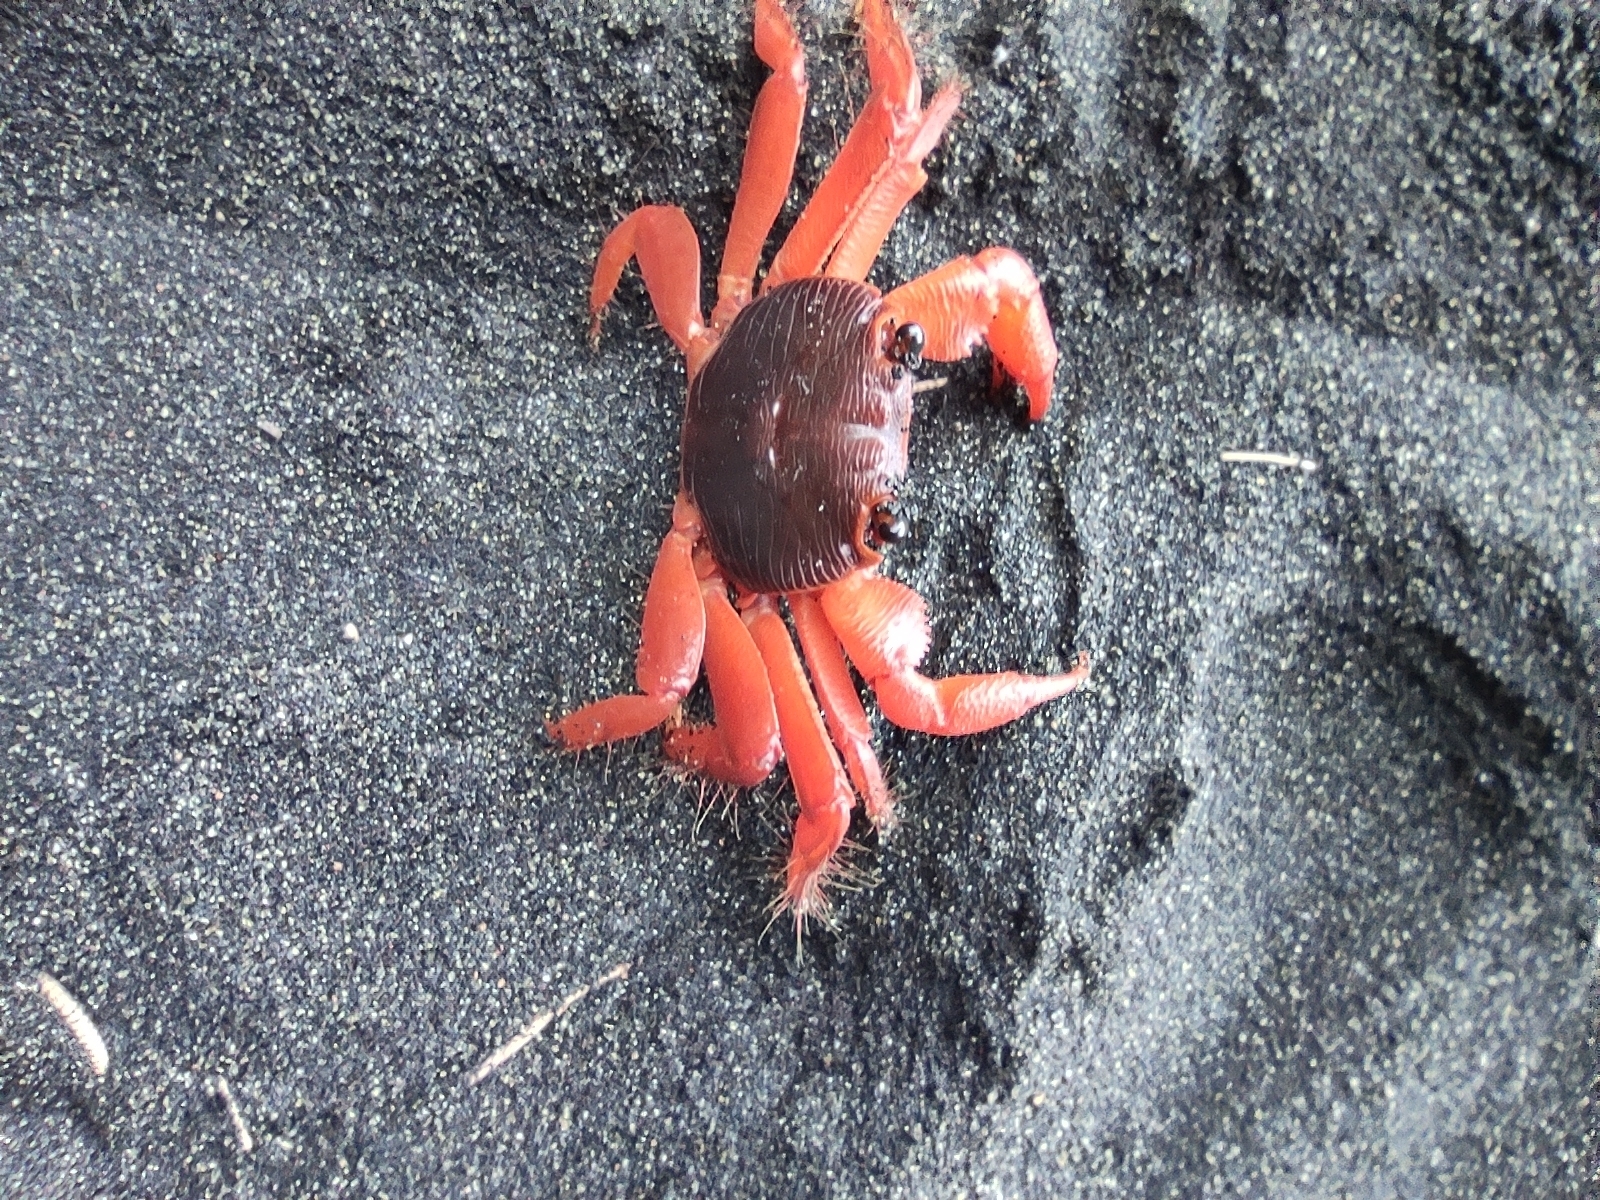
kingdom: Animalia
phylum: Arthropoda
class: Malacostraca
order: Decapoda
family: Grapsidae
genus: Geograpsus
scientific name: Geograpsus stormi
